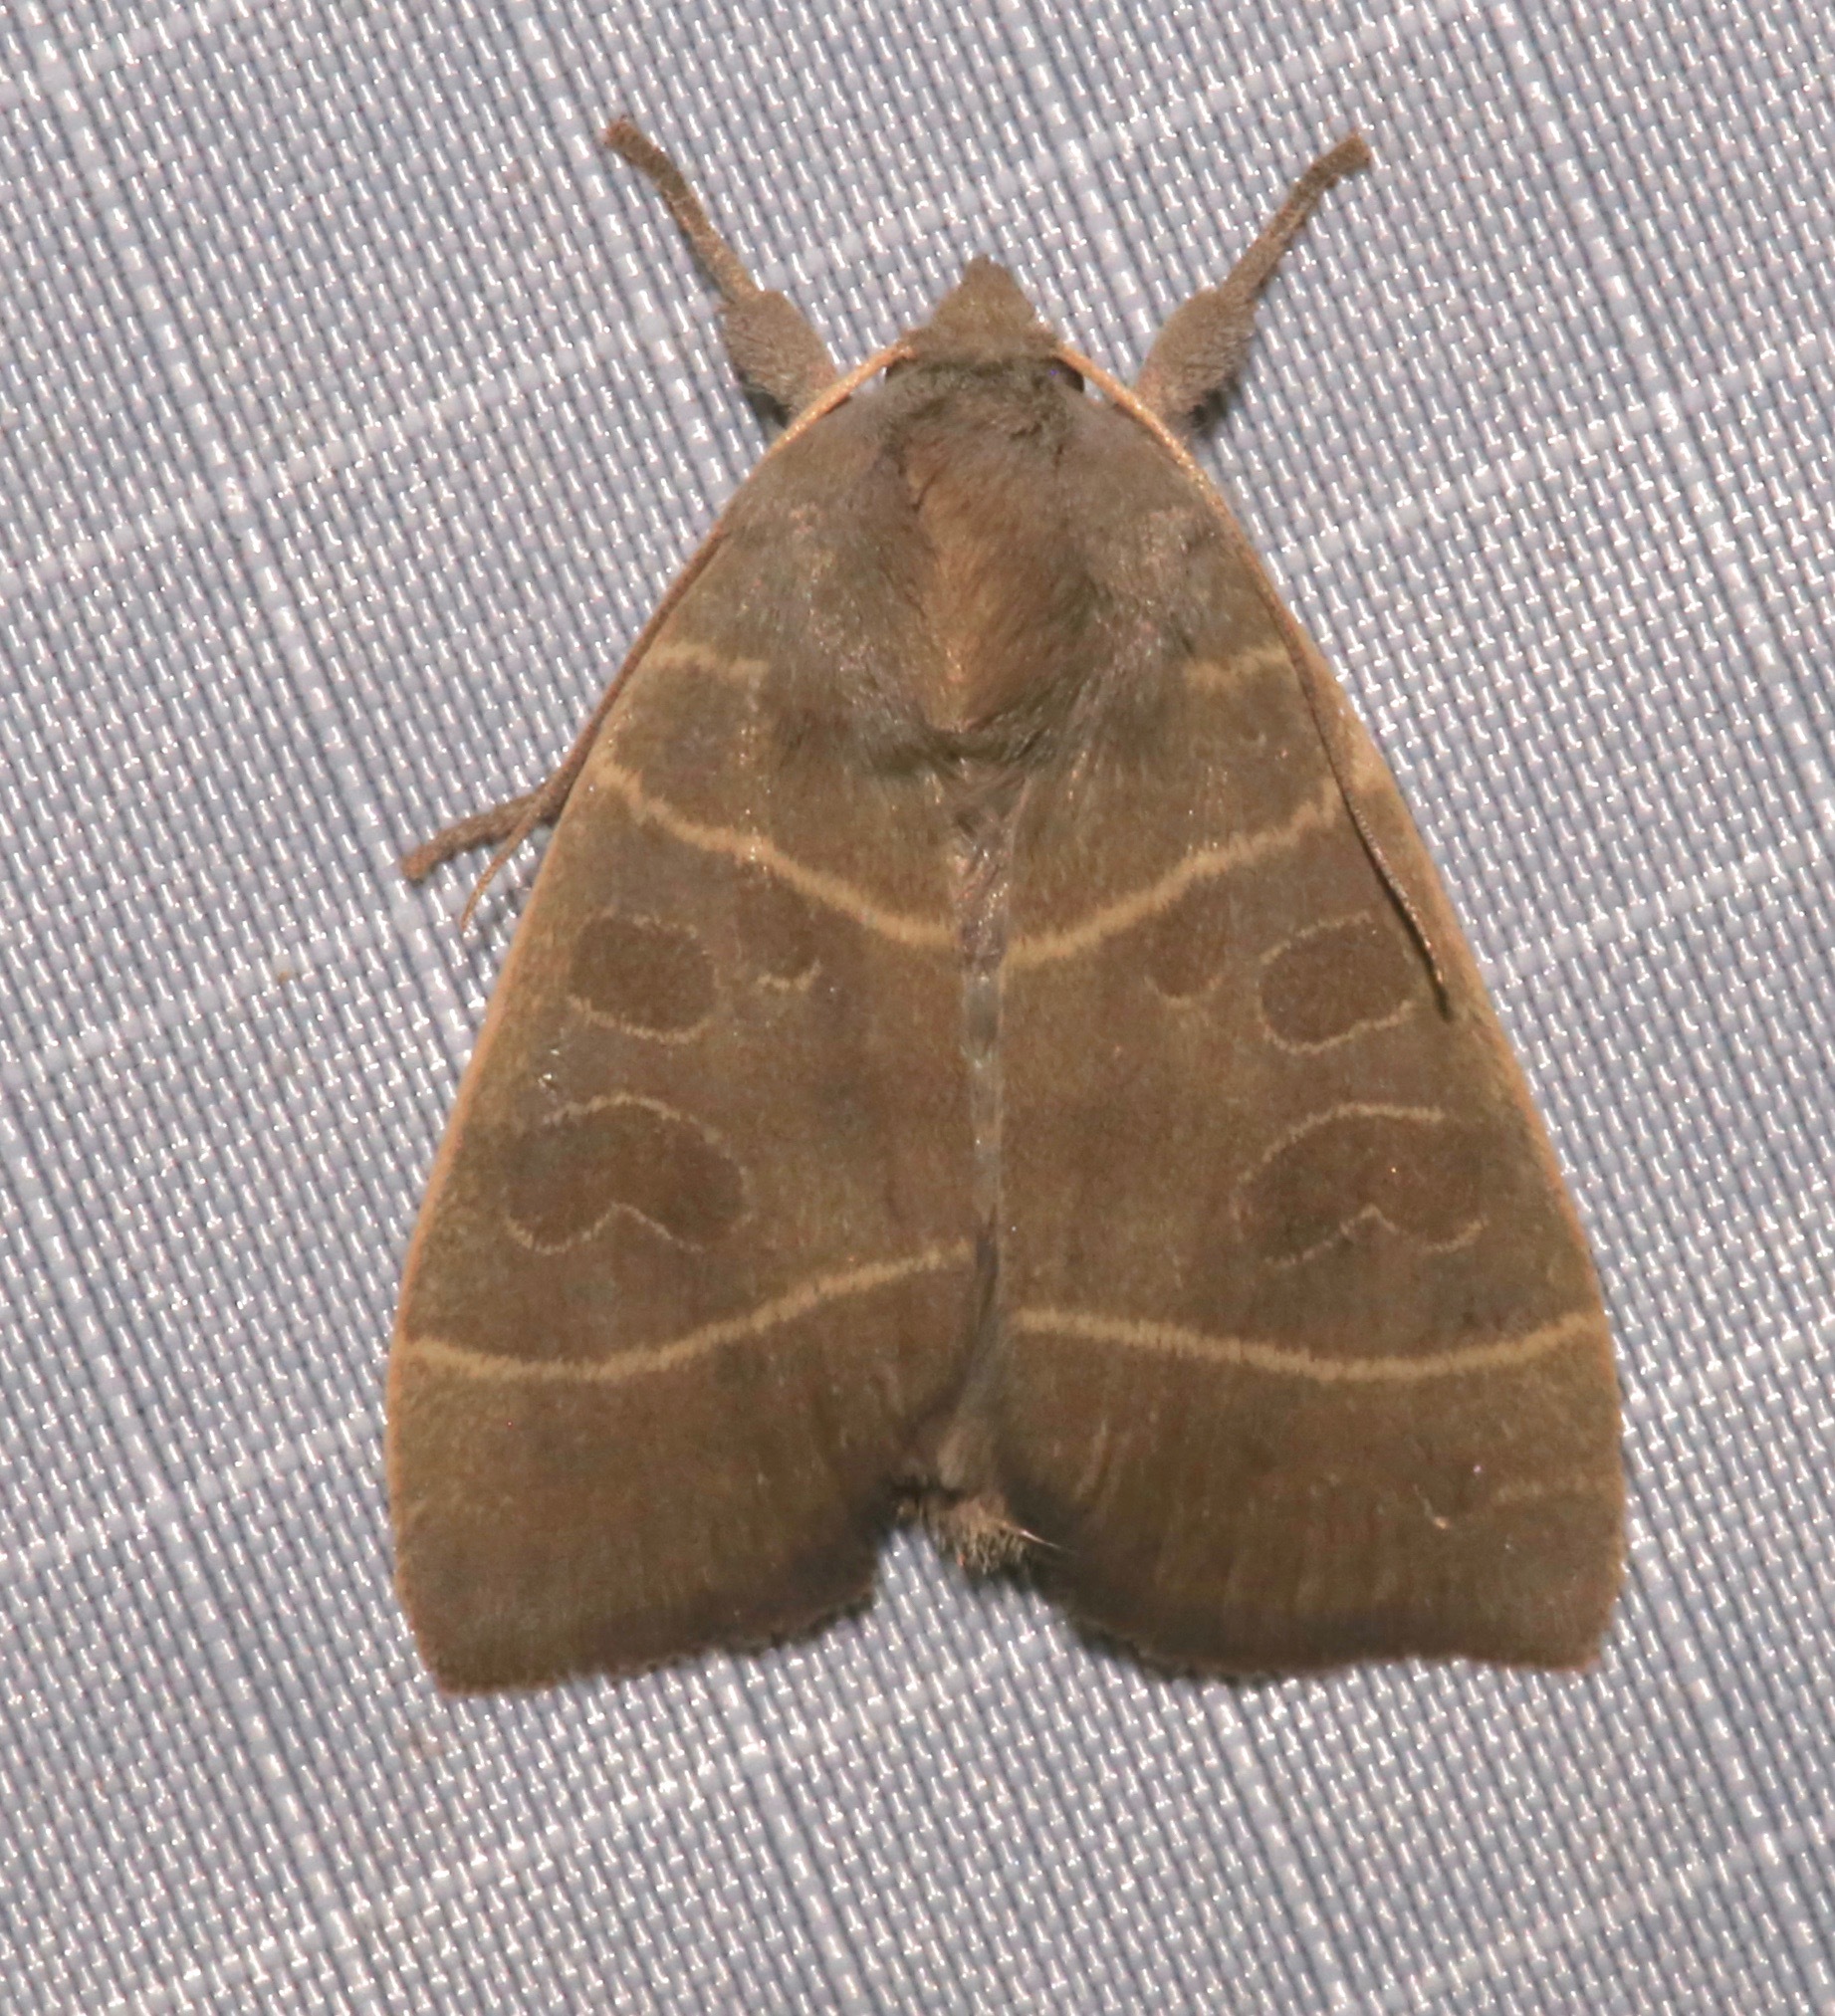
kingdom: Animalia
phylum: Arthropoda
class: Insecta
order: Lepidoptera
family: Noctuidae
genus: Ipimorpha
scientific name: Ipimorpha pleonectusa
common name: Even-lined sallow
